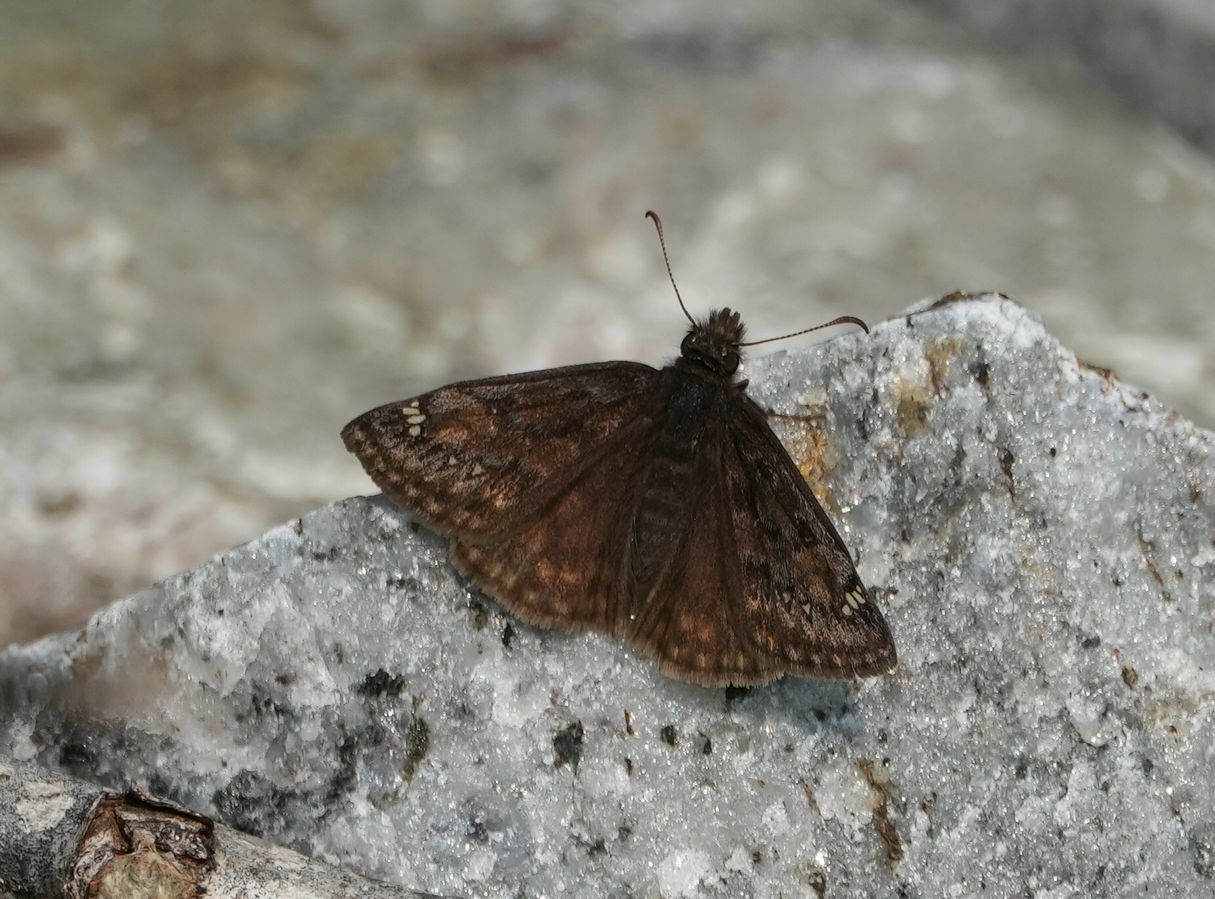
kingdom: Animalia
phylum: Arthropoda
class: Insecta
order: Lepidoptera
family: Hesperiidae
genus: Erynnis
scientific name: Erynnis juvenalis
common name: Juvenal's duskywing
